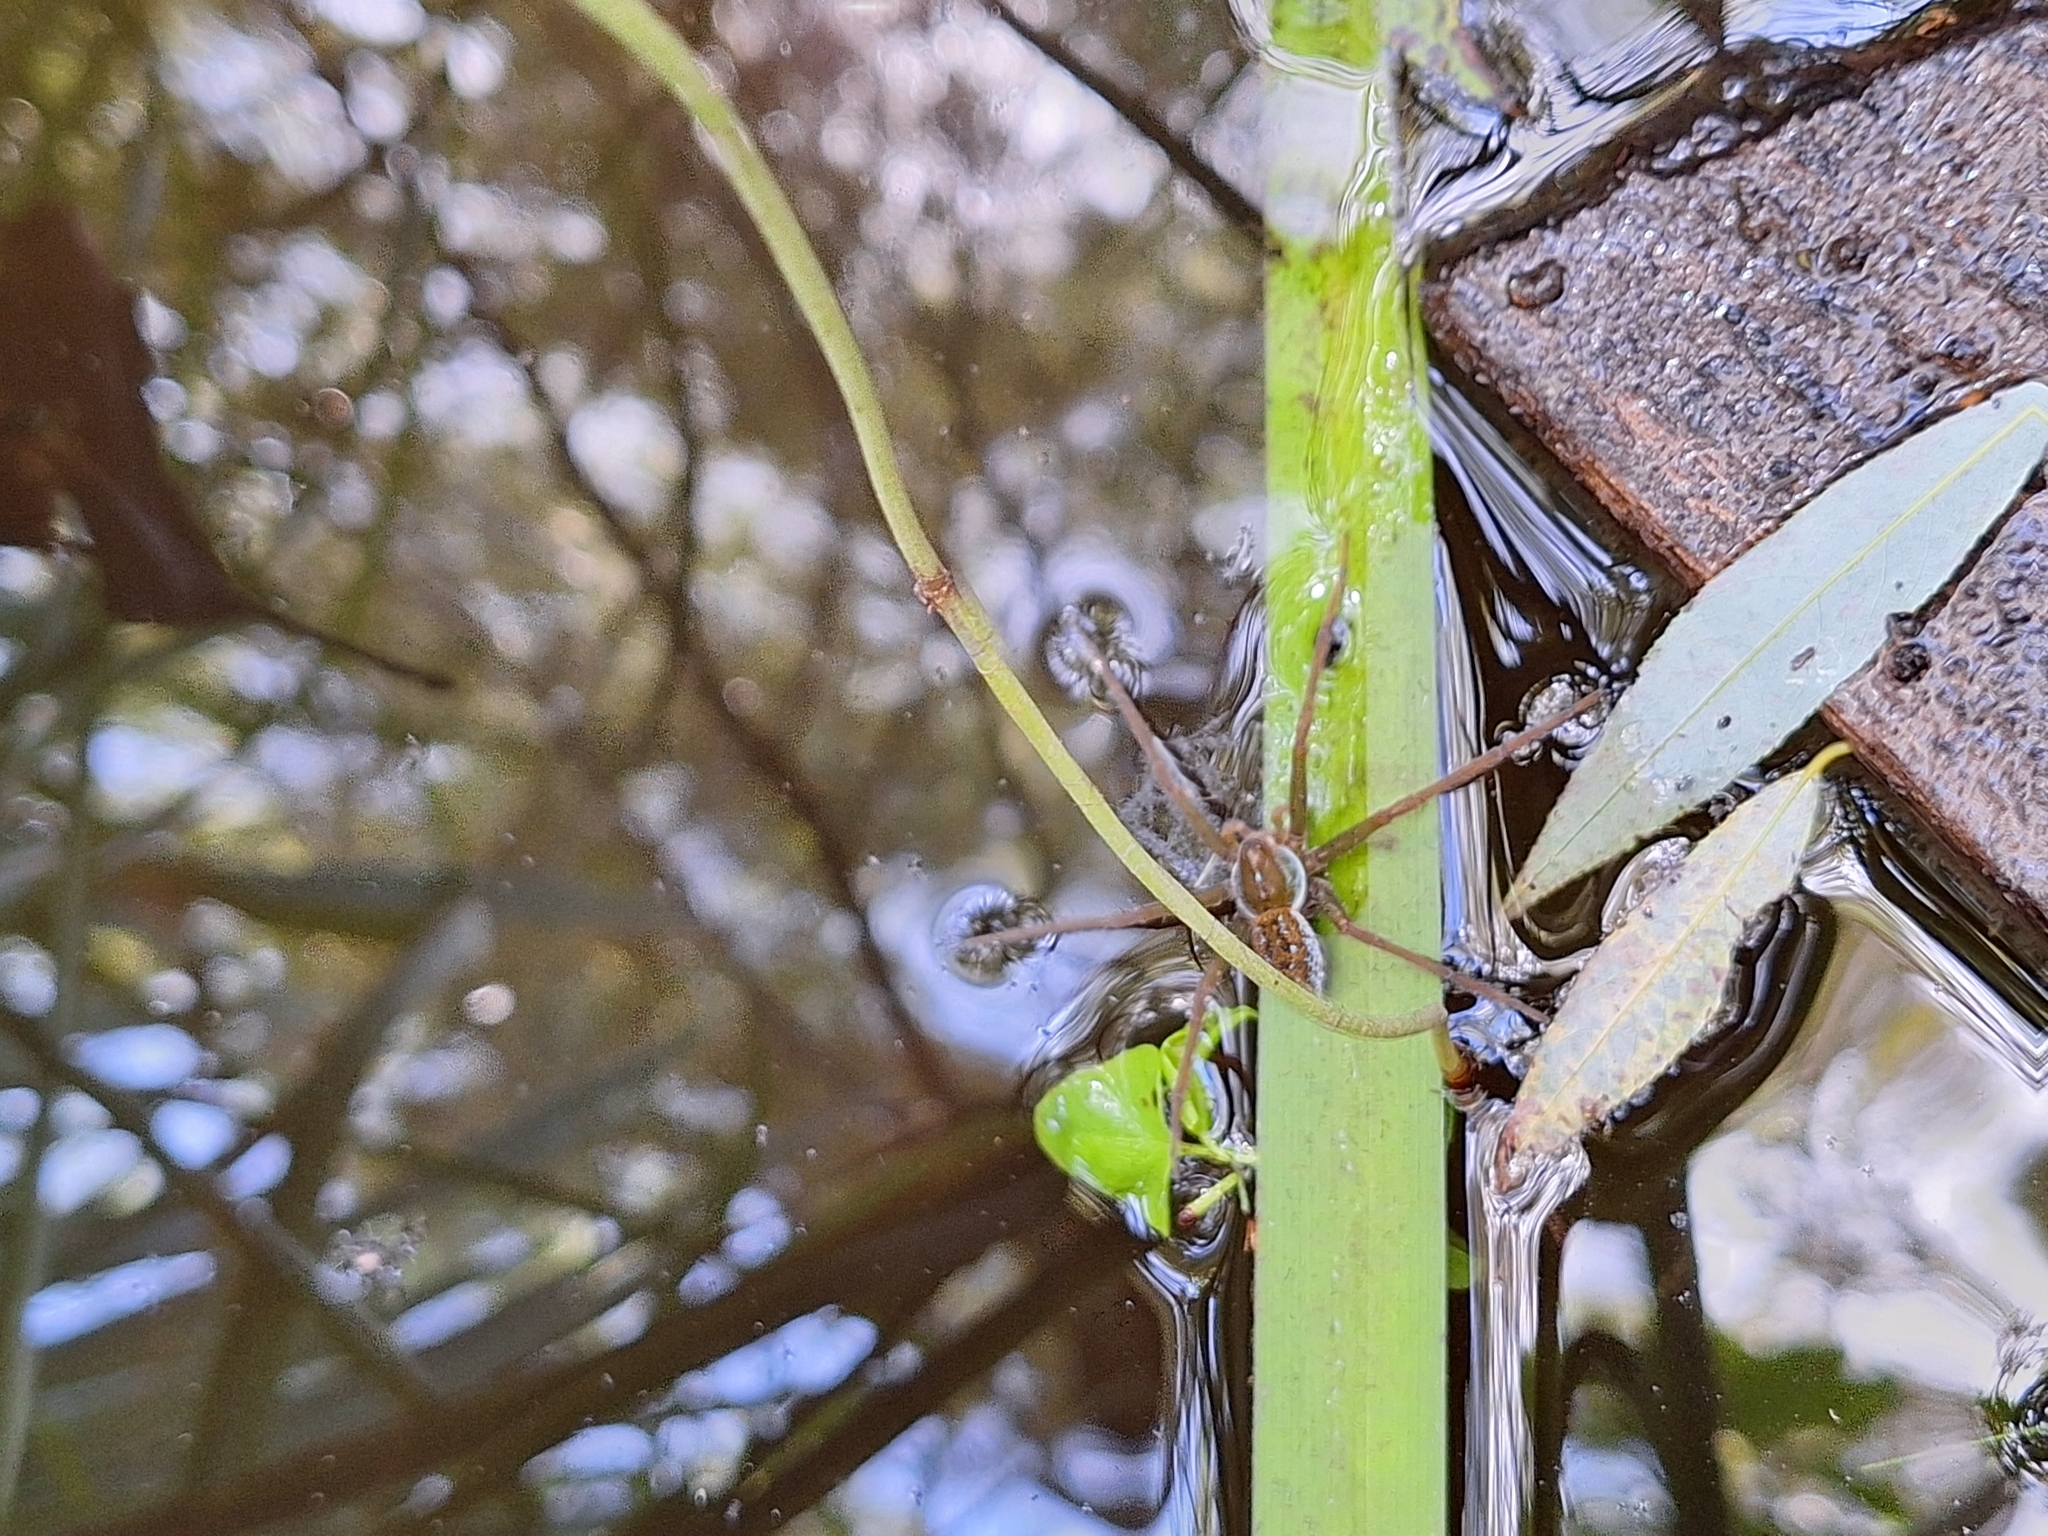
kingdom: Animalia
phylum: Arthropoda
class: Arachnida
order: Araneae
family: Pisauridae
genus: Thaumasia
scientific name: Thaumasia velox
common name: Nursery web spiders
